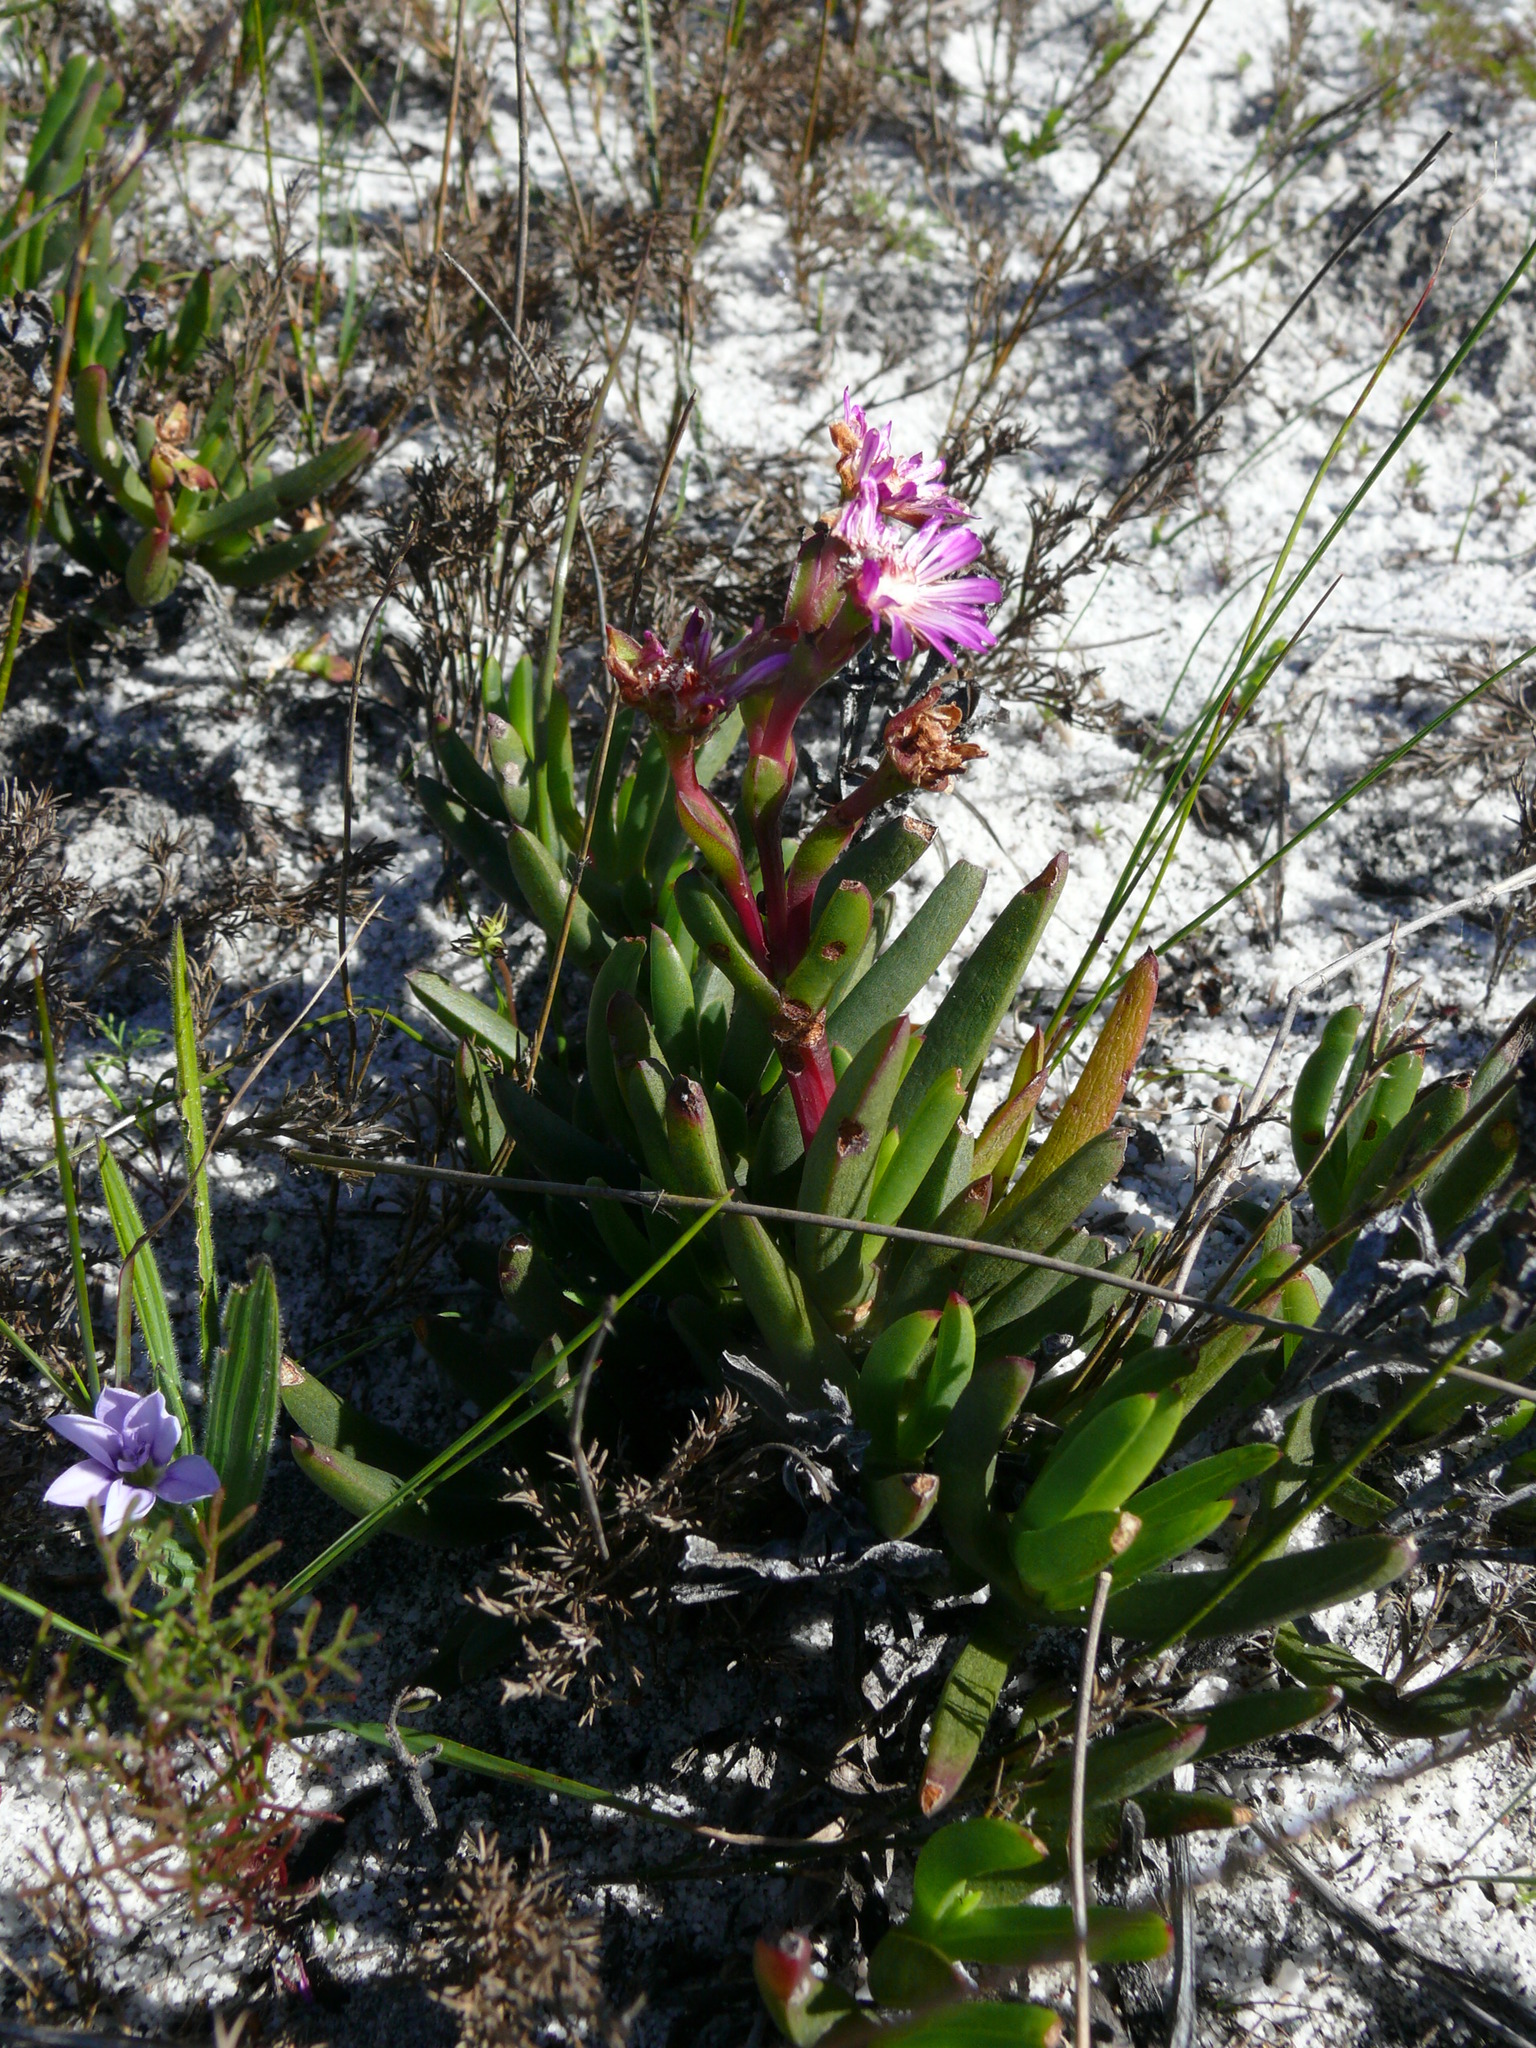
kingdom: Plantae
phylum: Tracheophyta
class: Magnoliopsida
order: Caryophyllales
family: Aizoaceae
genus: Ruschia
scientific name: Ruschia sarmentosa
